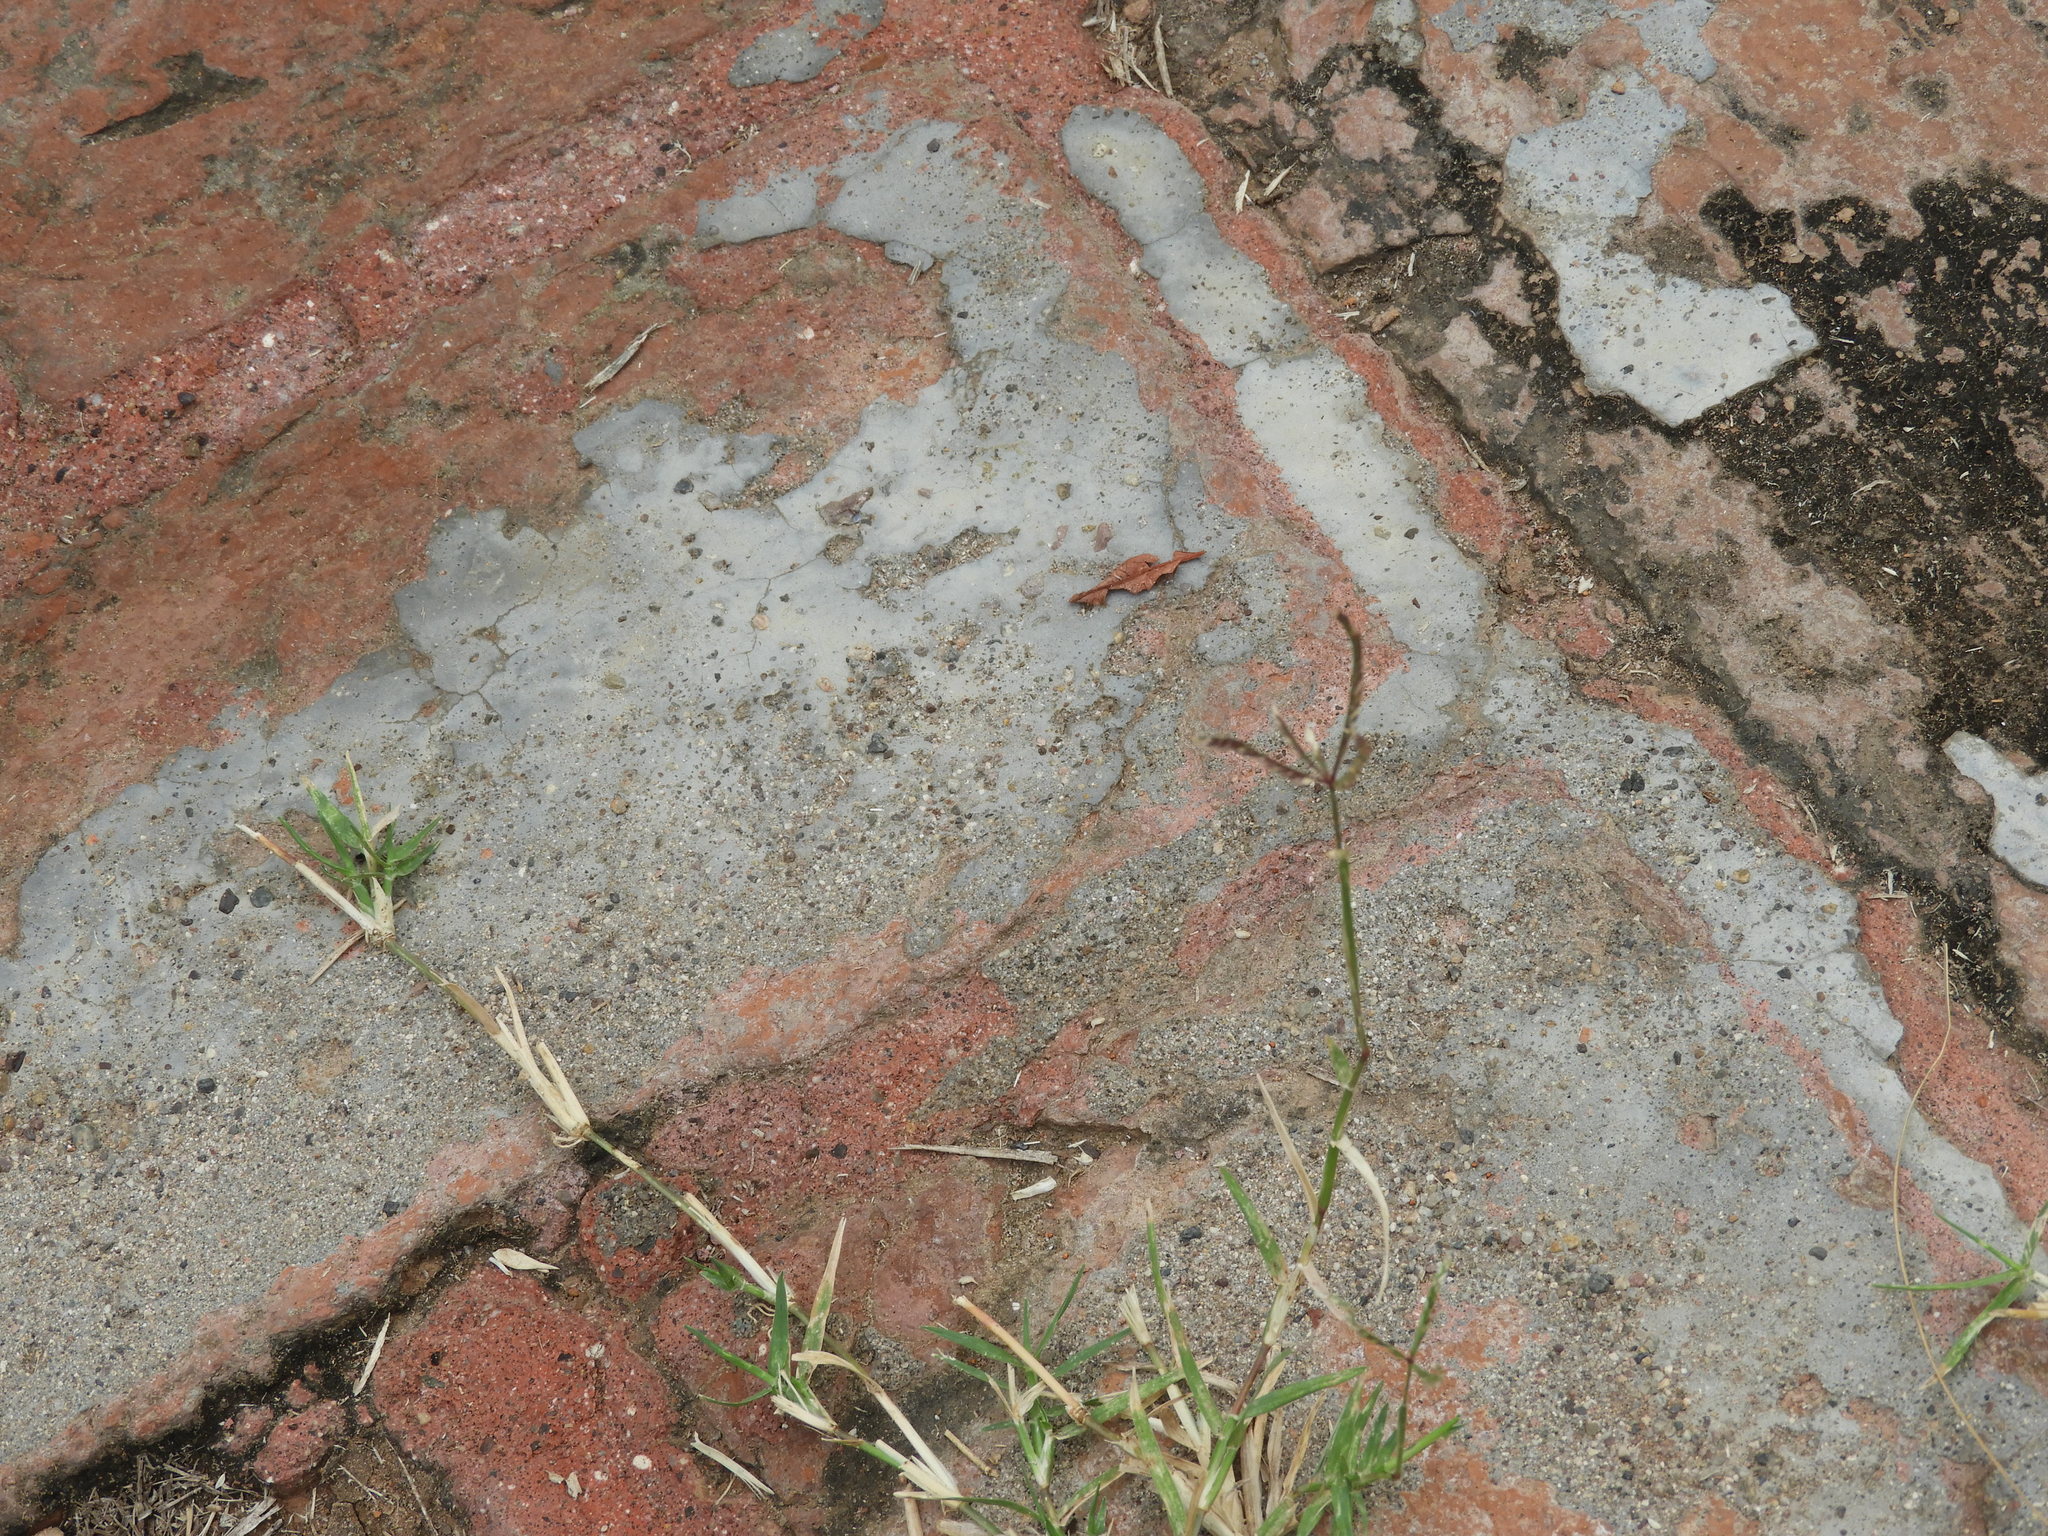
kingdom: Plantae
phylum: Tracheophyta
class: Liliopsida
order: Poales
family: Poaceae
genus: Cynodon
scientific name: Cynodon dactylon
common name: Bermuda grass
